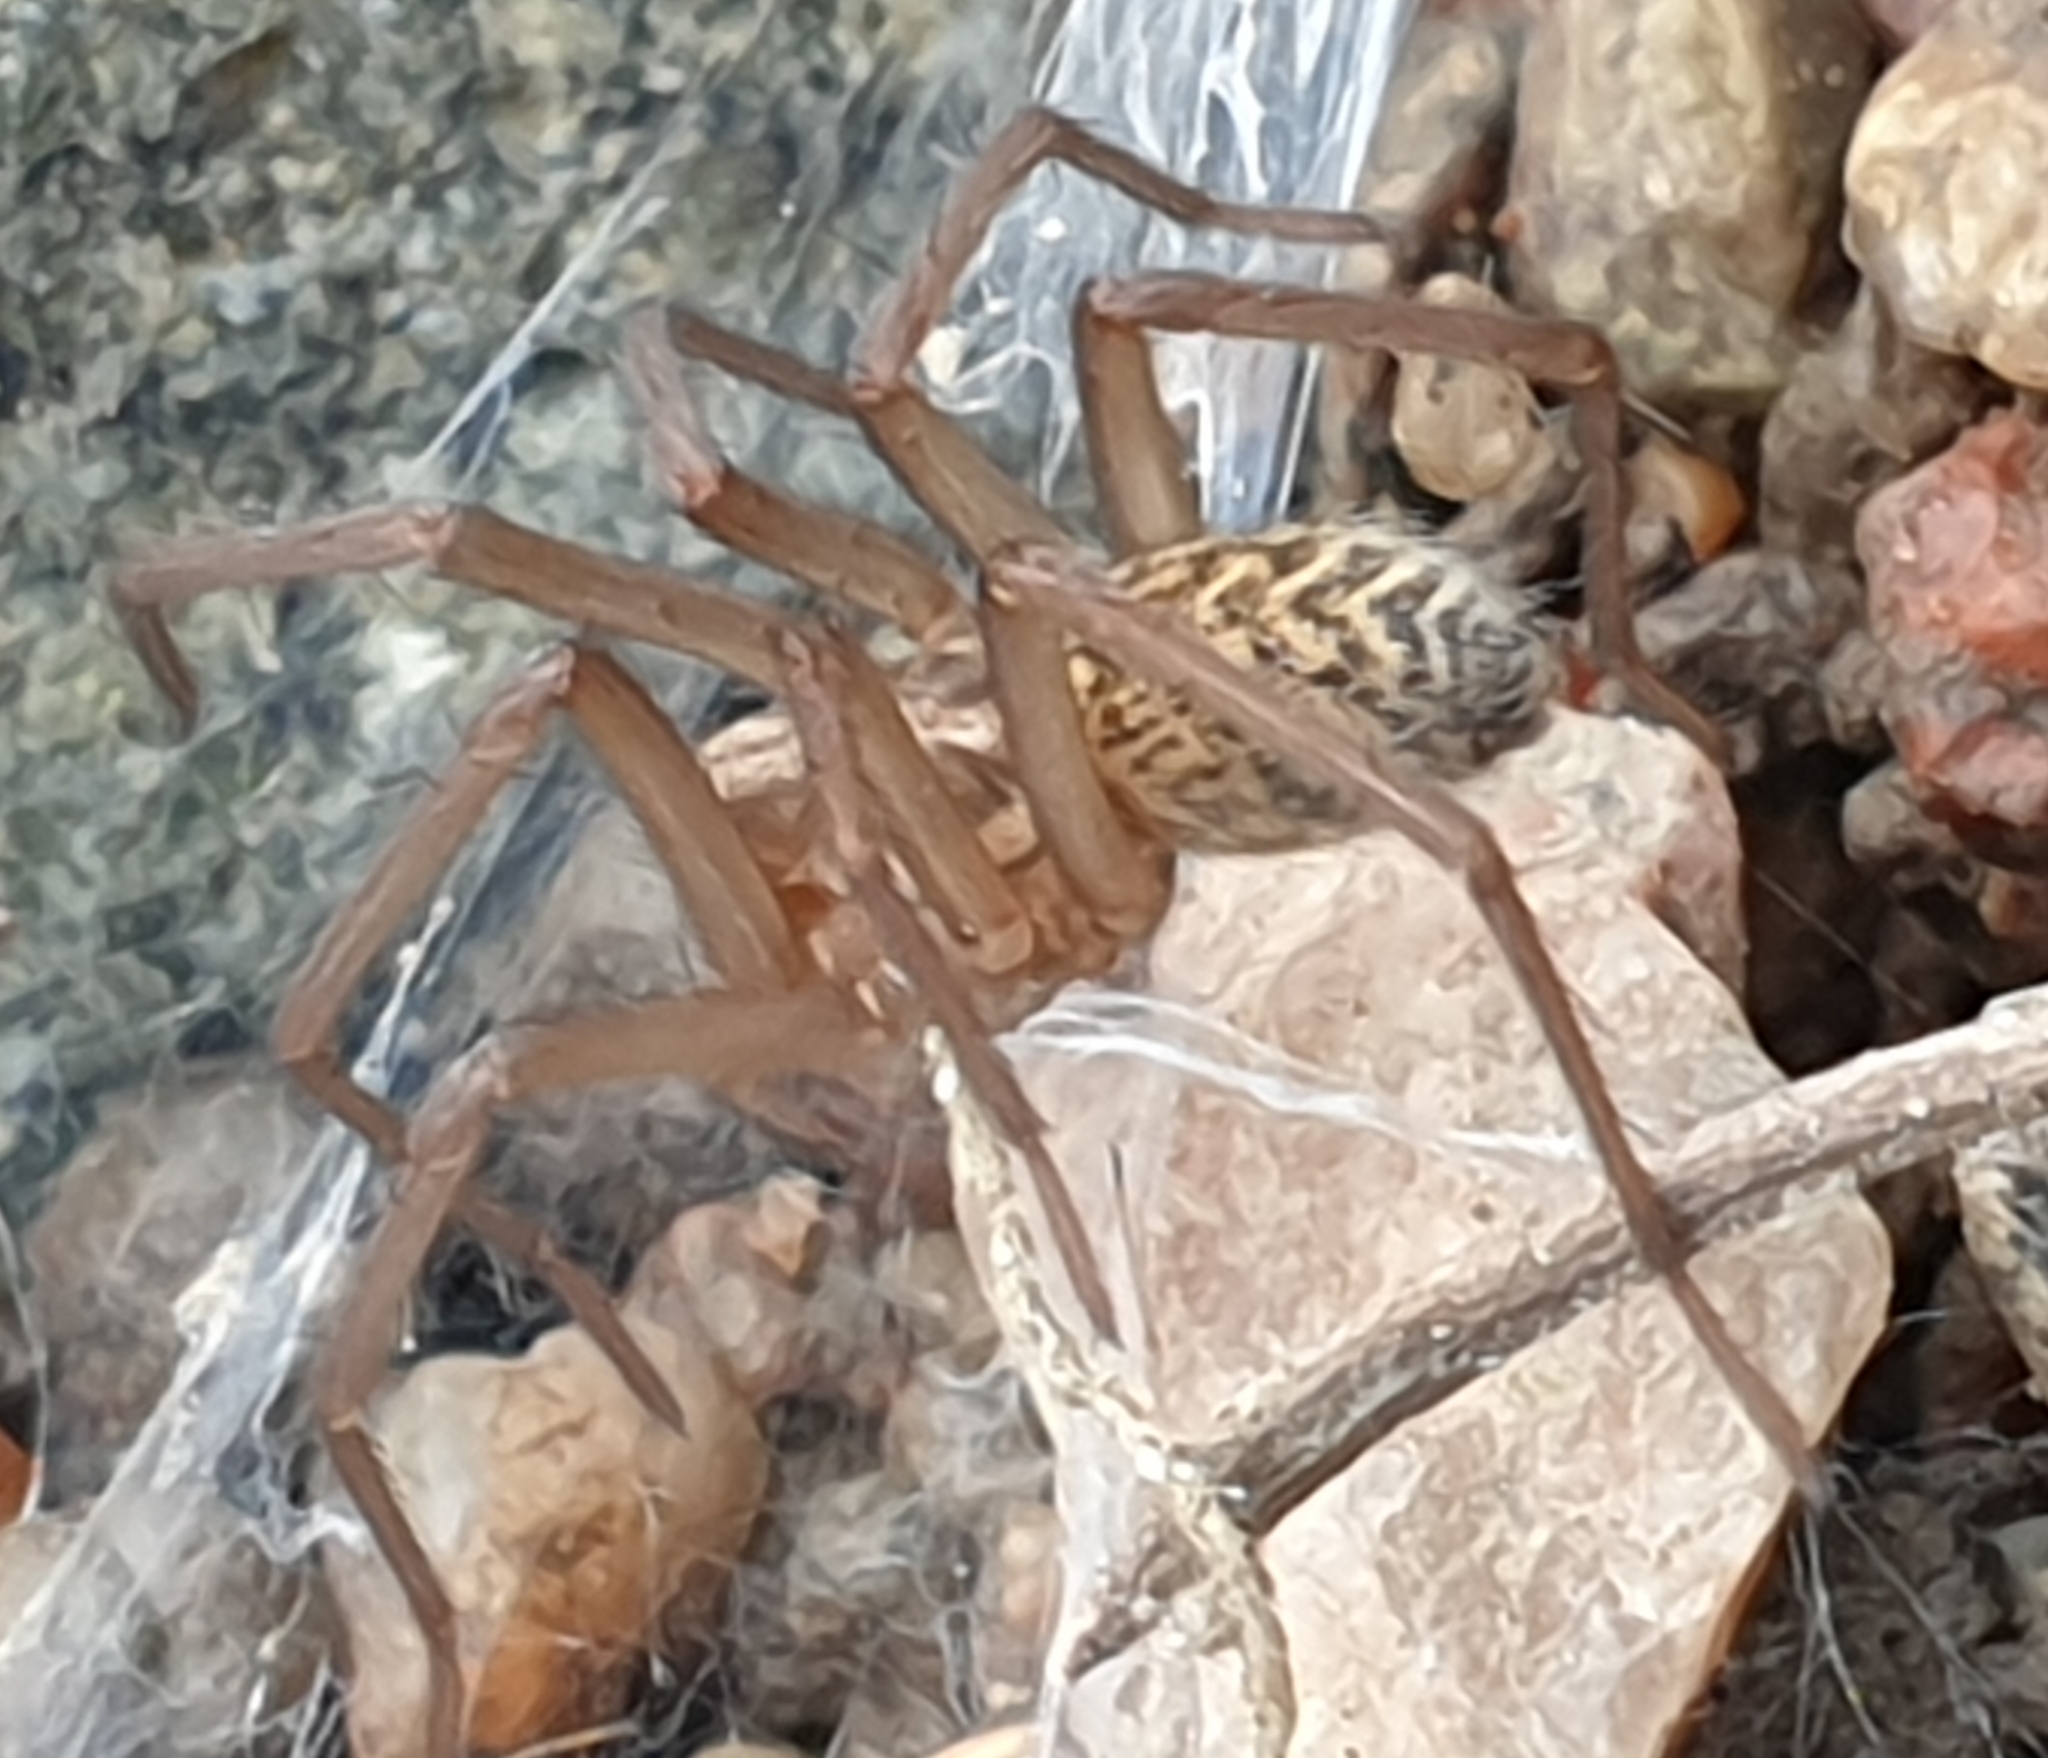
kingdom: Animalia
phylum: Arthropoda
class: Arachnida
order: Araneae
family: Agelenidae
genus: Eratigena
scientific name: Eratigena atrica
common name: Giant house spider
